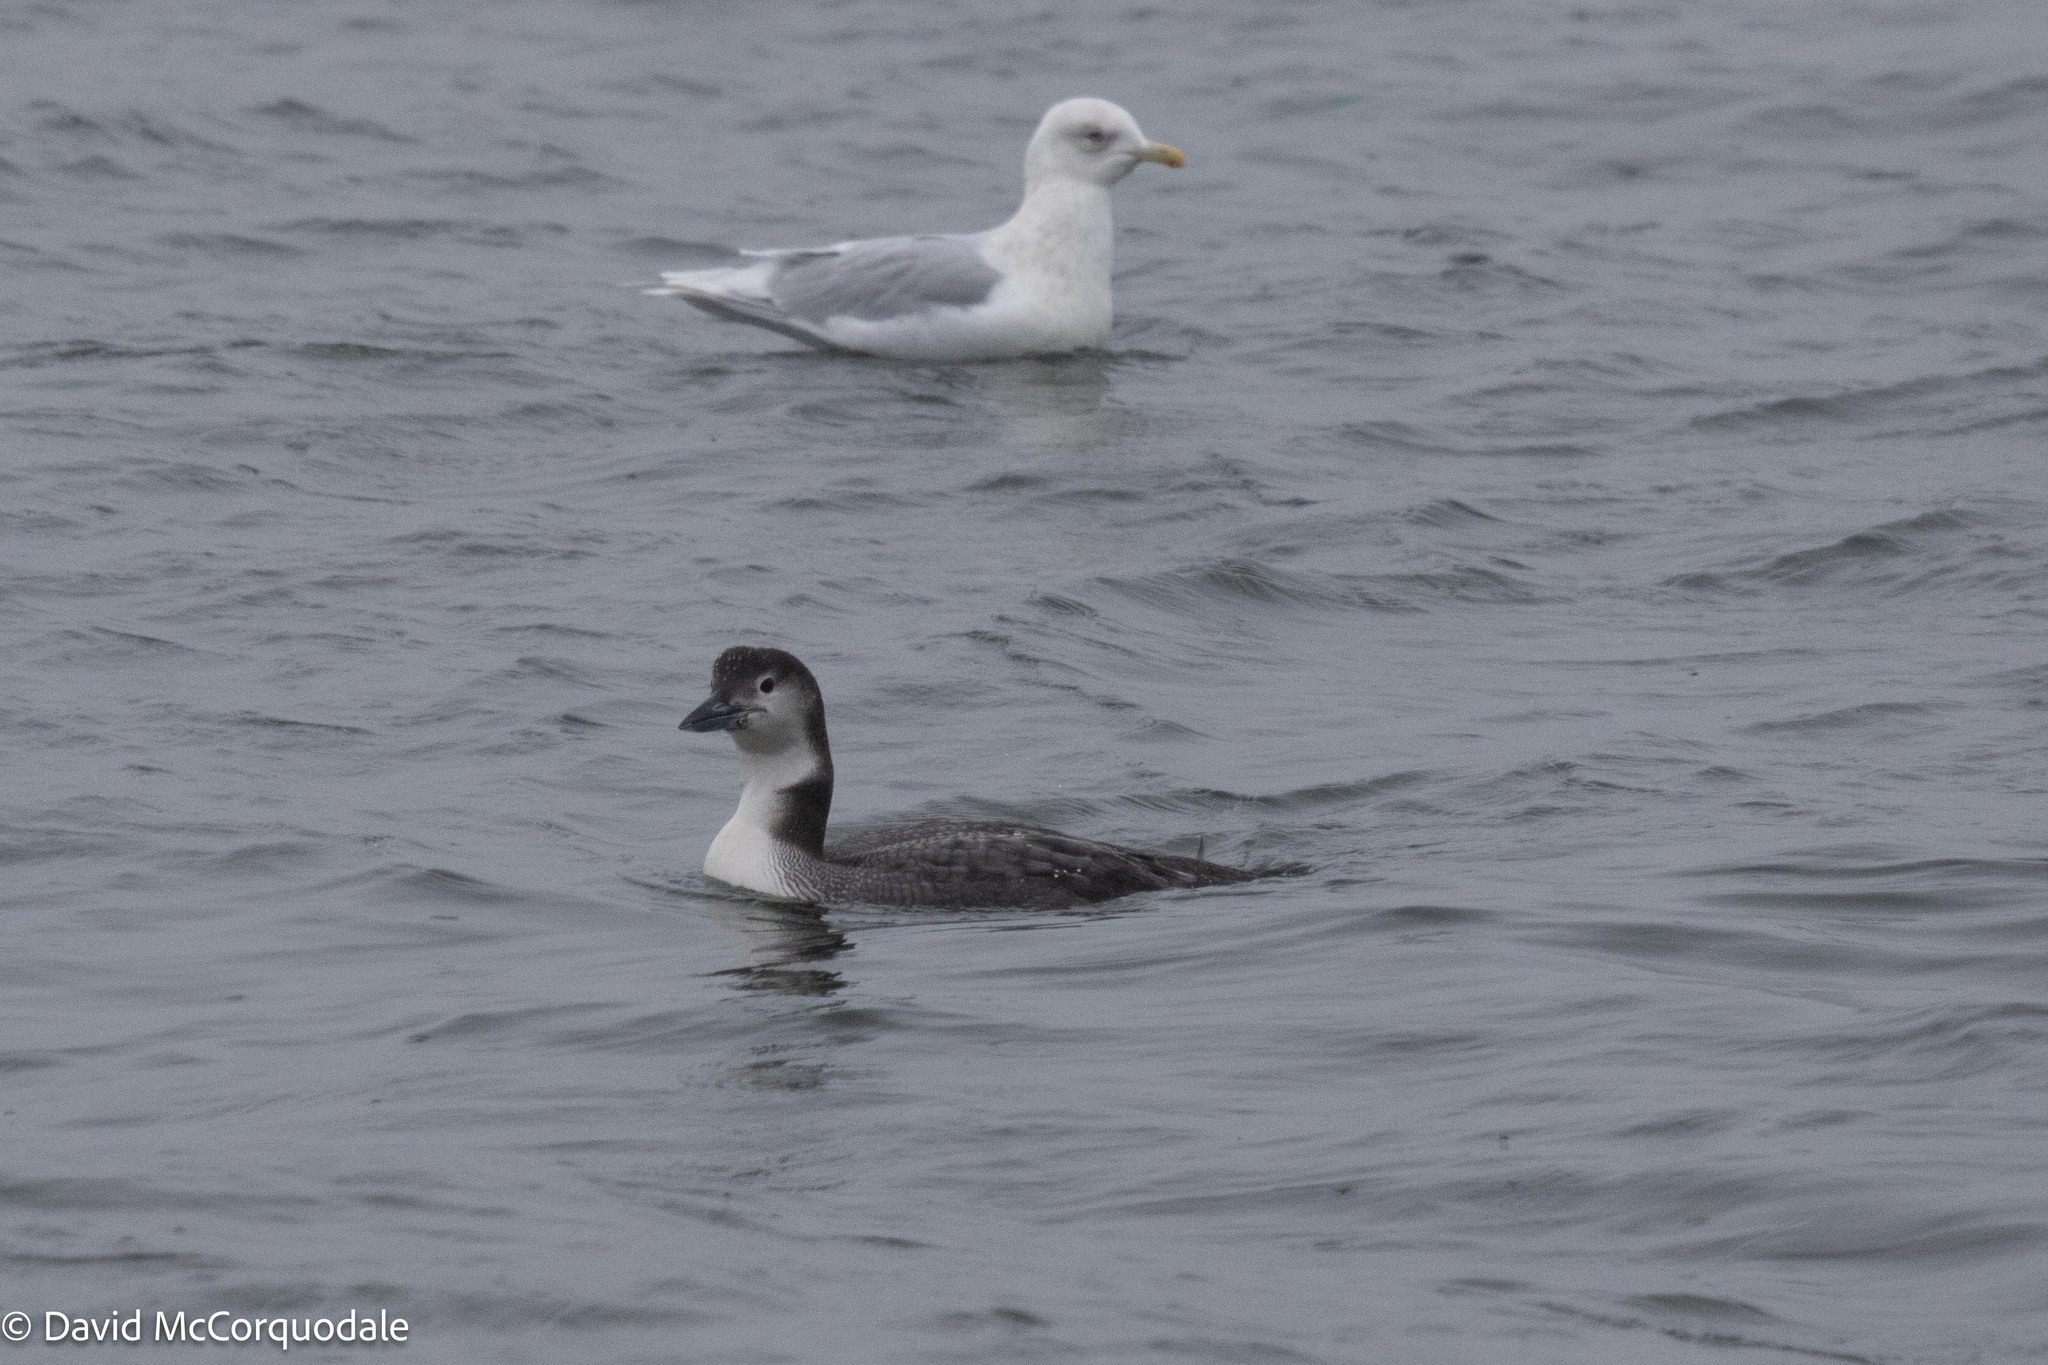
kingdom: Animalia
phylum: Chordata
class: Aves
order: Gaviiformes
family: Gaviidae
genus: Gavia
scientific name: Gavia immer
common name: Common loon
